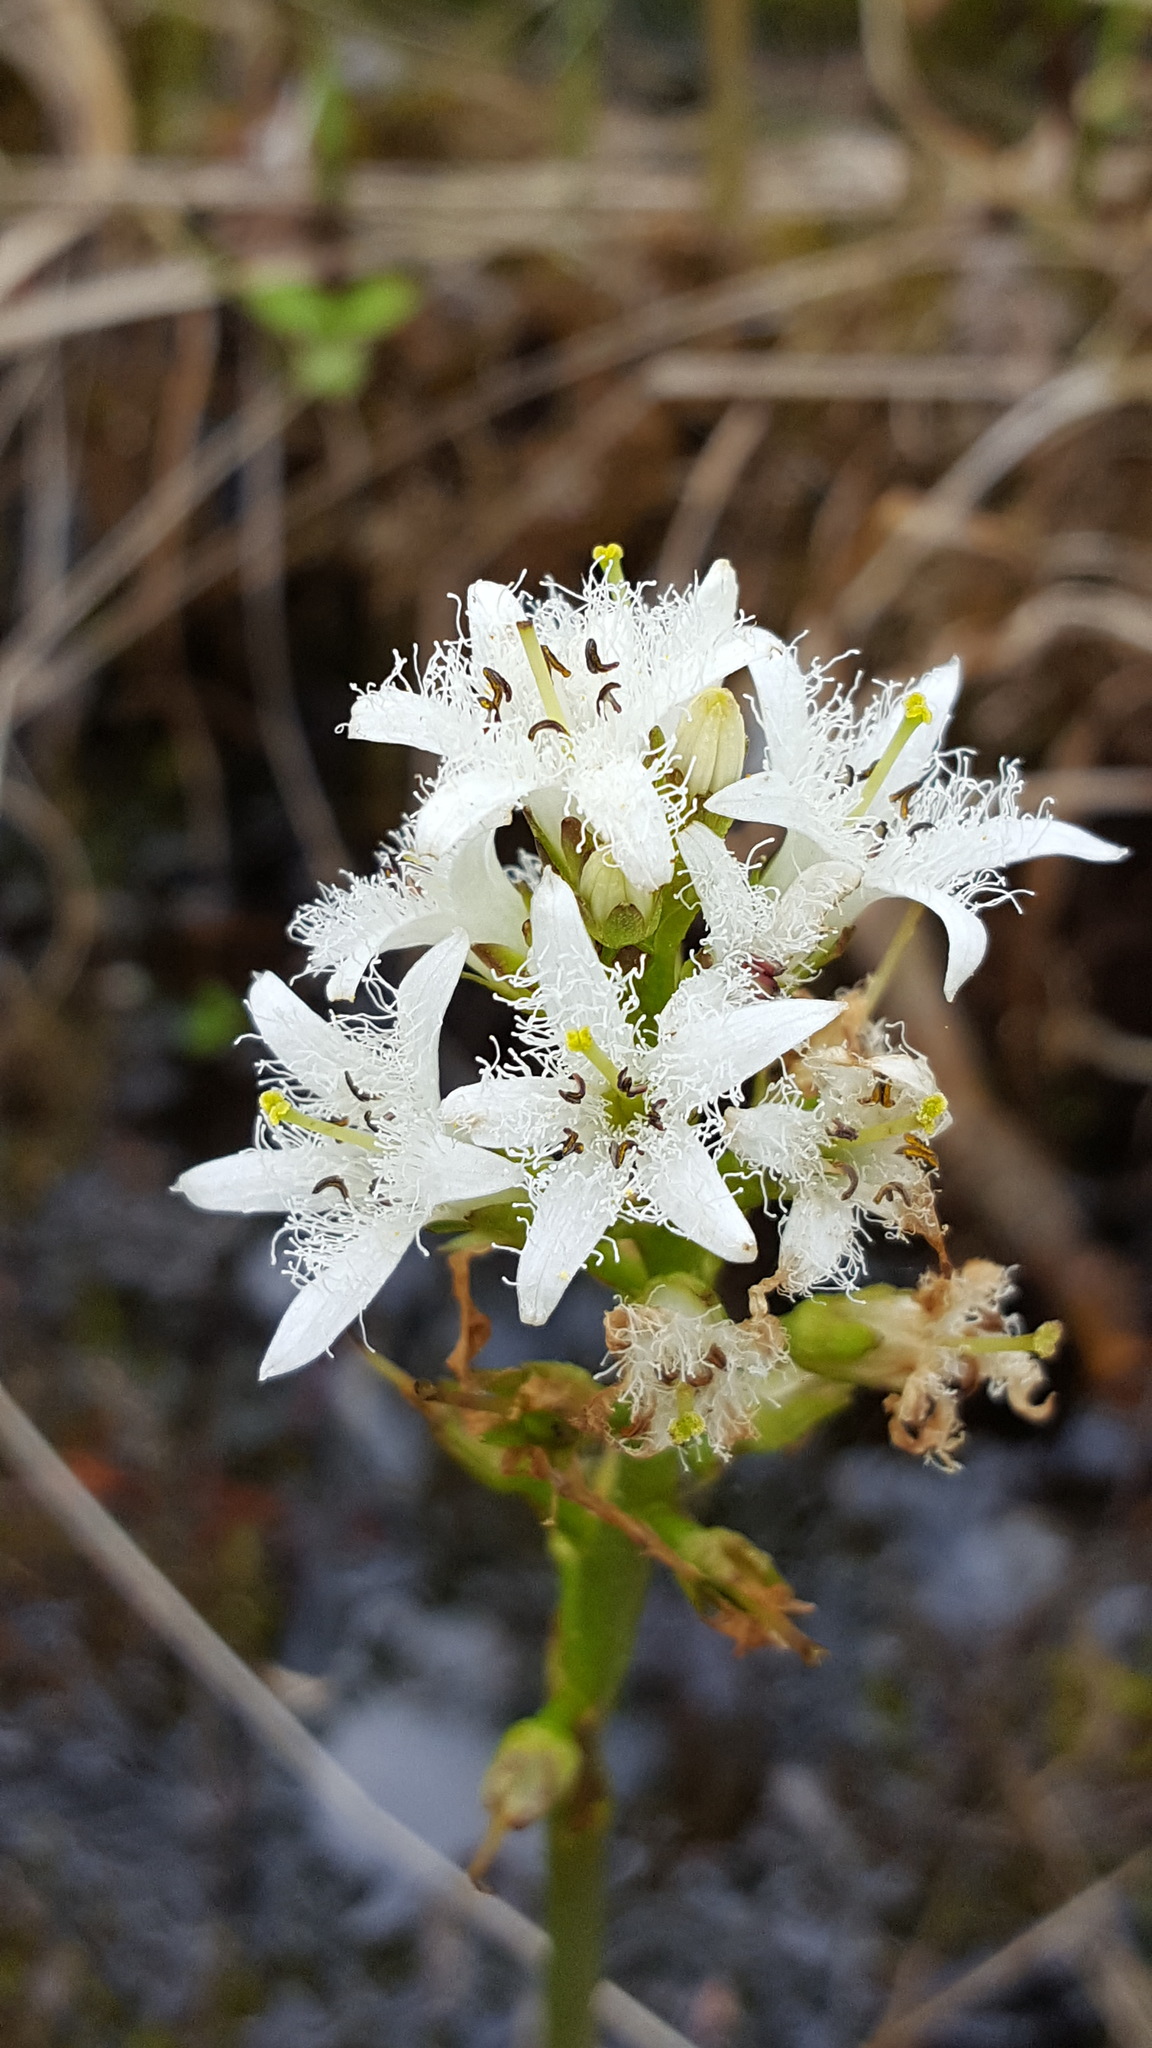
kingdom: Plantae
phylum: Tracheophyta
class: Magnoliopsida
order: Asterales
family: Menyanthaceae
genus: Menyanthes
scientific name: Menyanthes trifoliata
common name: Bogbean
